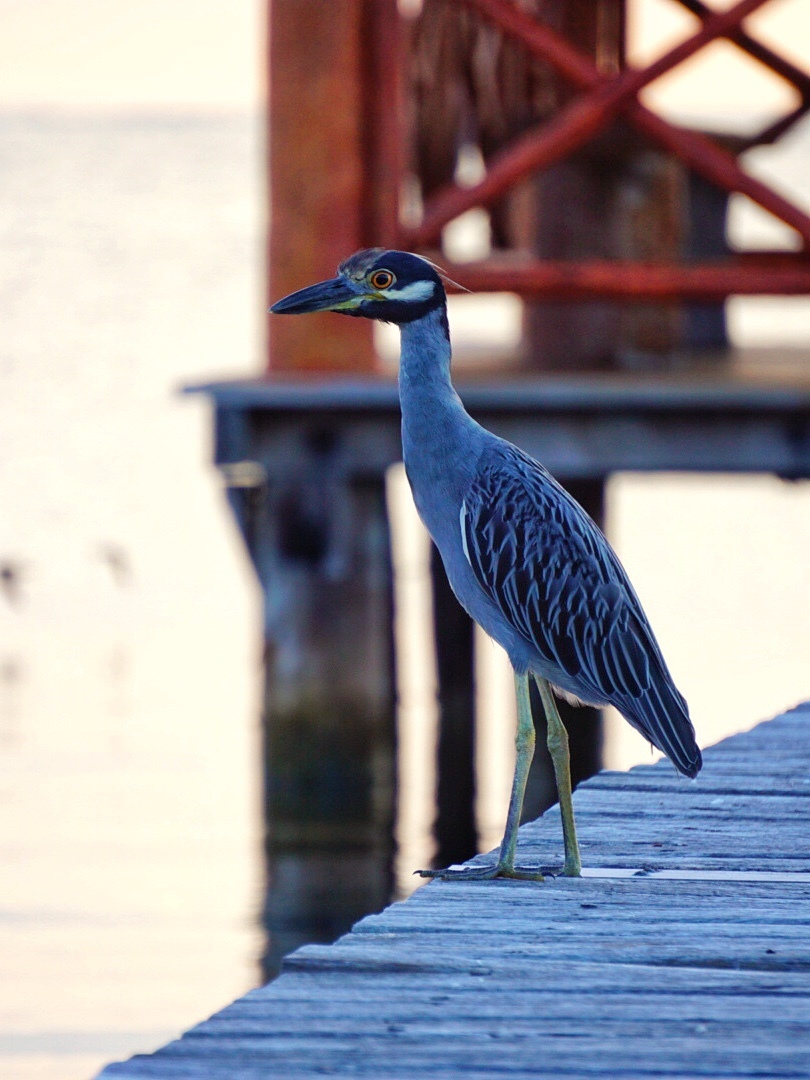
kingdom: Animalia
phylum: Chordata
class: Aves
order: Pelecaniformes
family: Ardeidae
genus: Nyctanassa
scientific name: Nyctanassa violacea
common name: Yellow-crowned night heron
